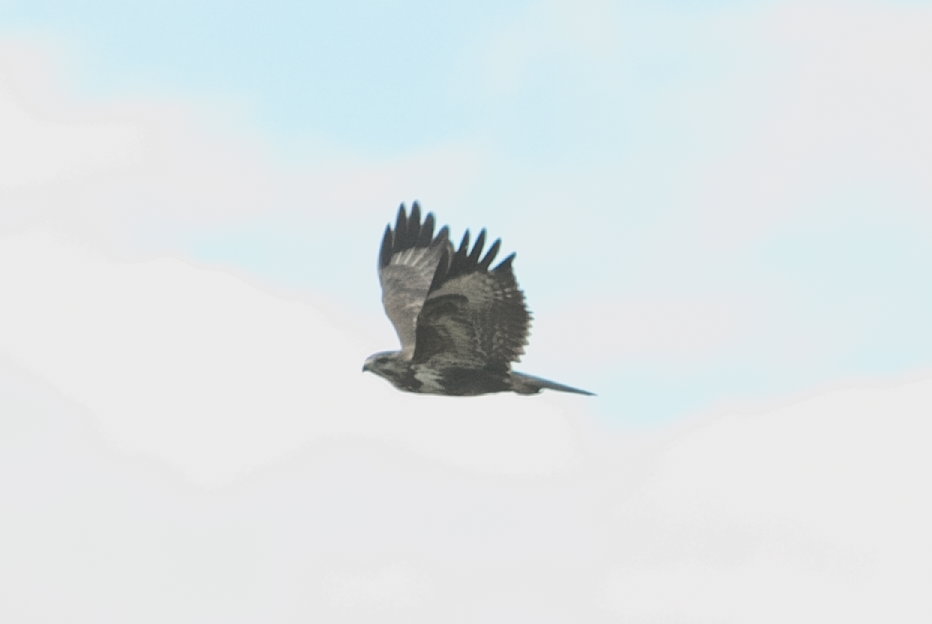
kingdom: Animalia
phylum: Chordata
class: Aves
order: Accipitriformes
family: Accipitridae
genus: Buteo
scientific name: Buteo buteo
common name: Common buzzard
